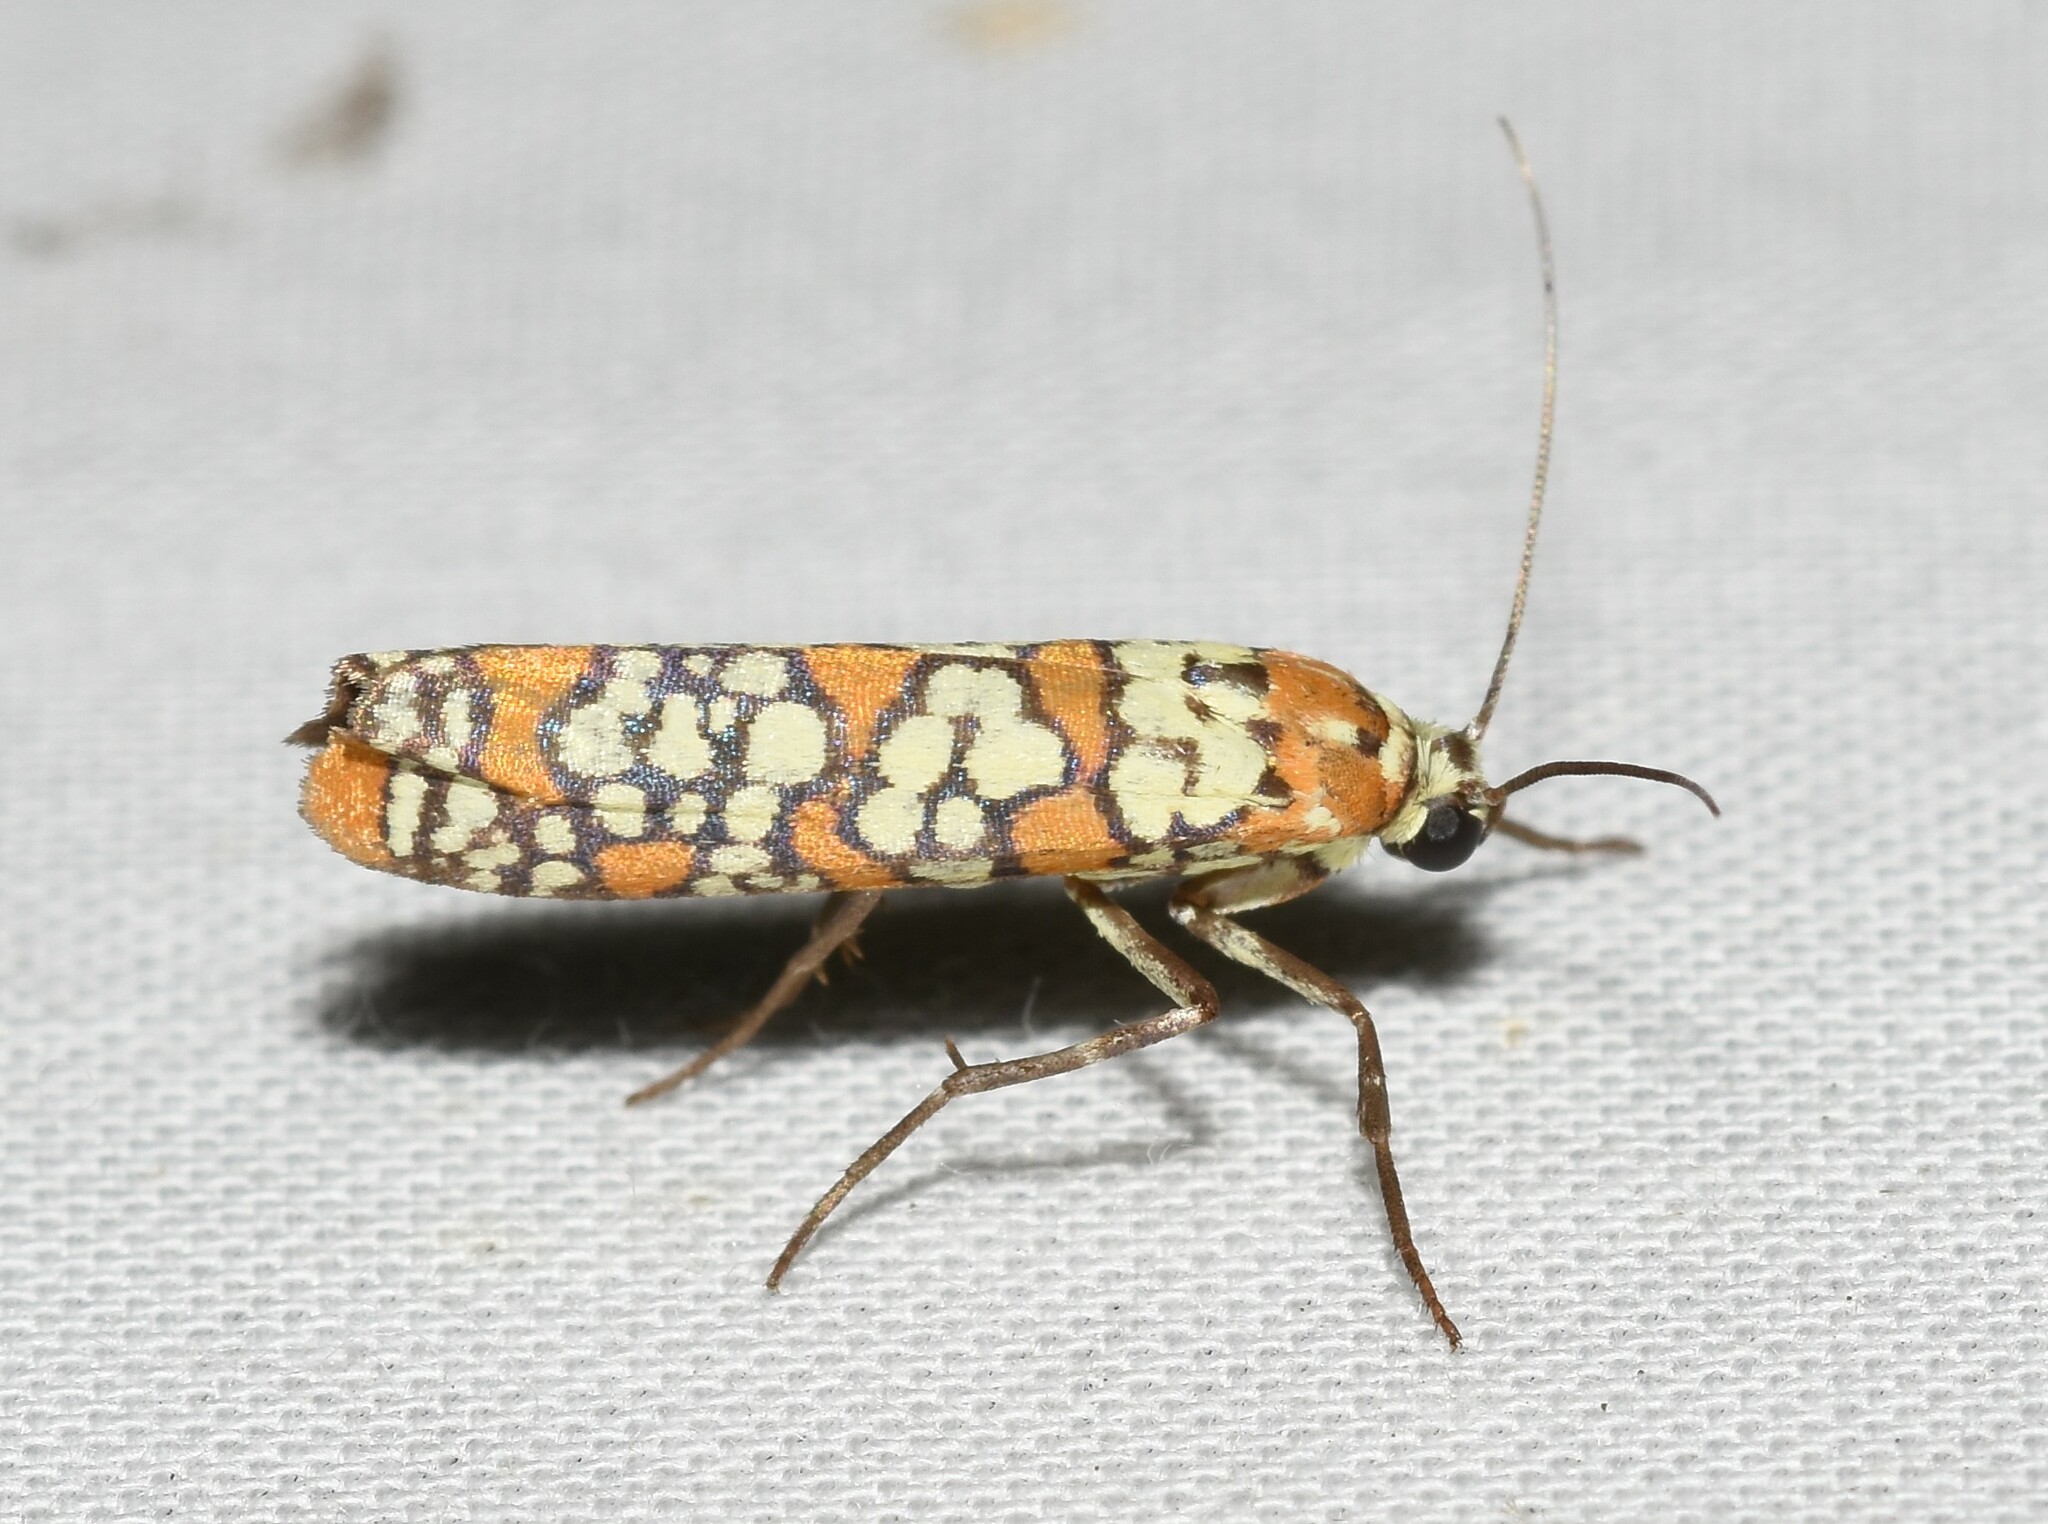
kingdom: Animalia
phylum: Arthropoda
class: Insecta
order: Lepidoptera
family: Attevidae
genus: Atteva
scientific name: Atteva punctella
